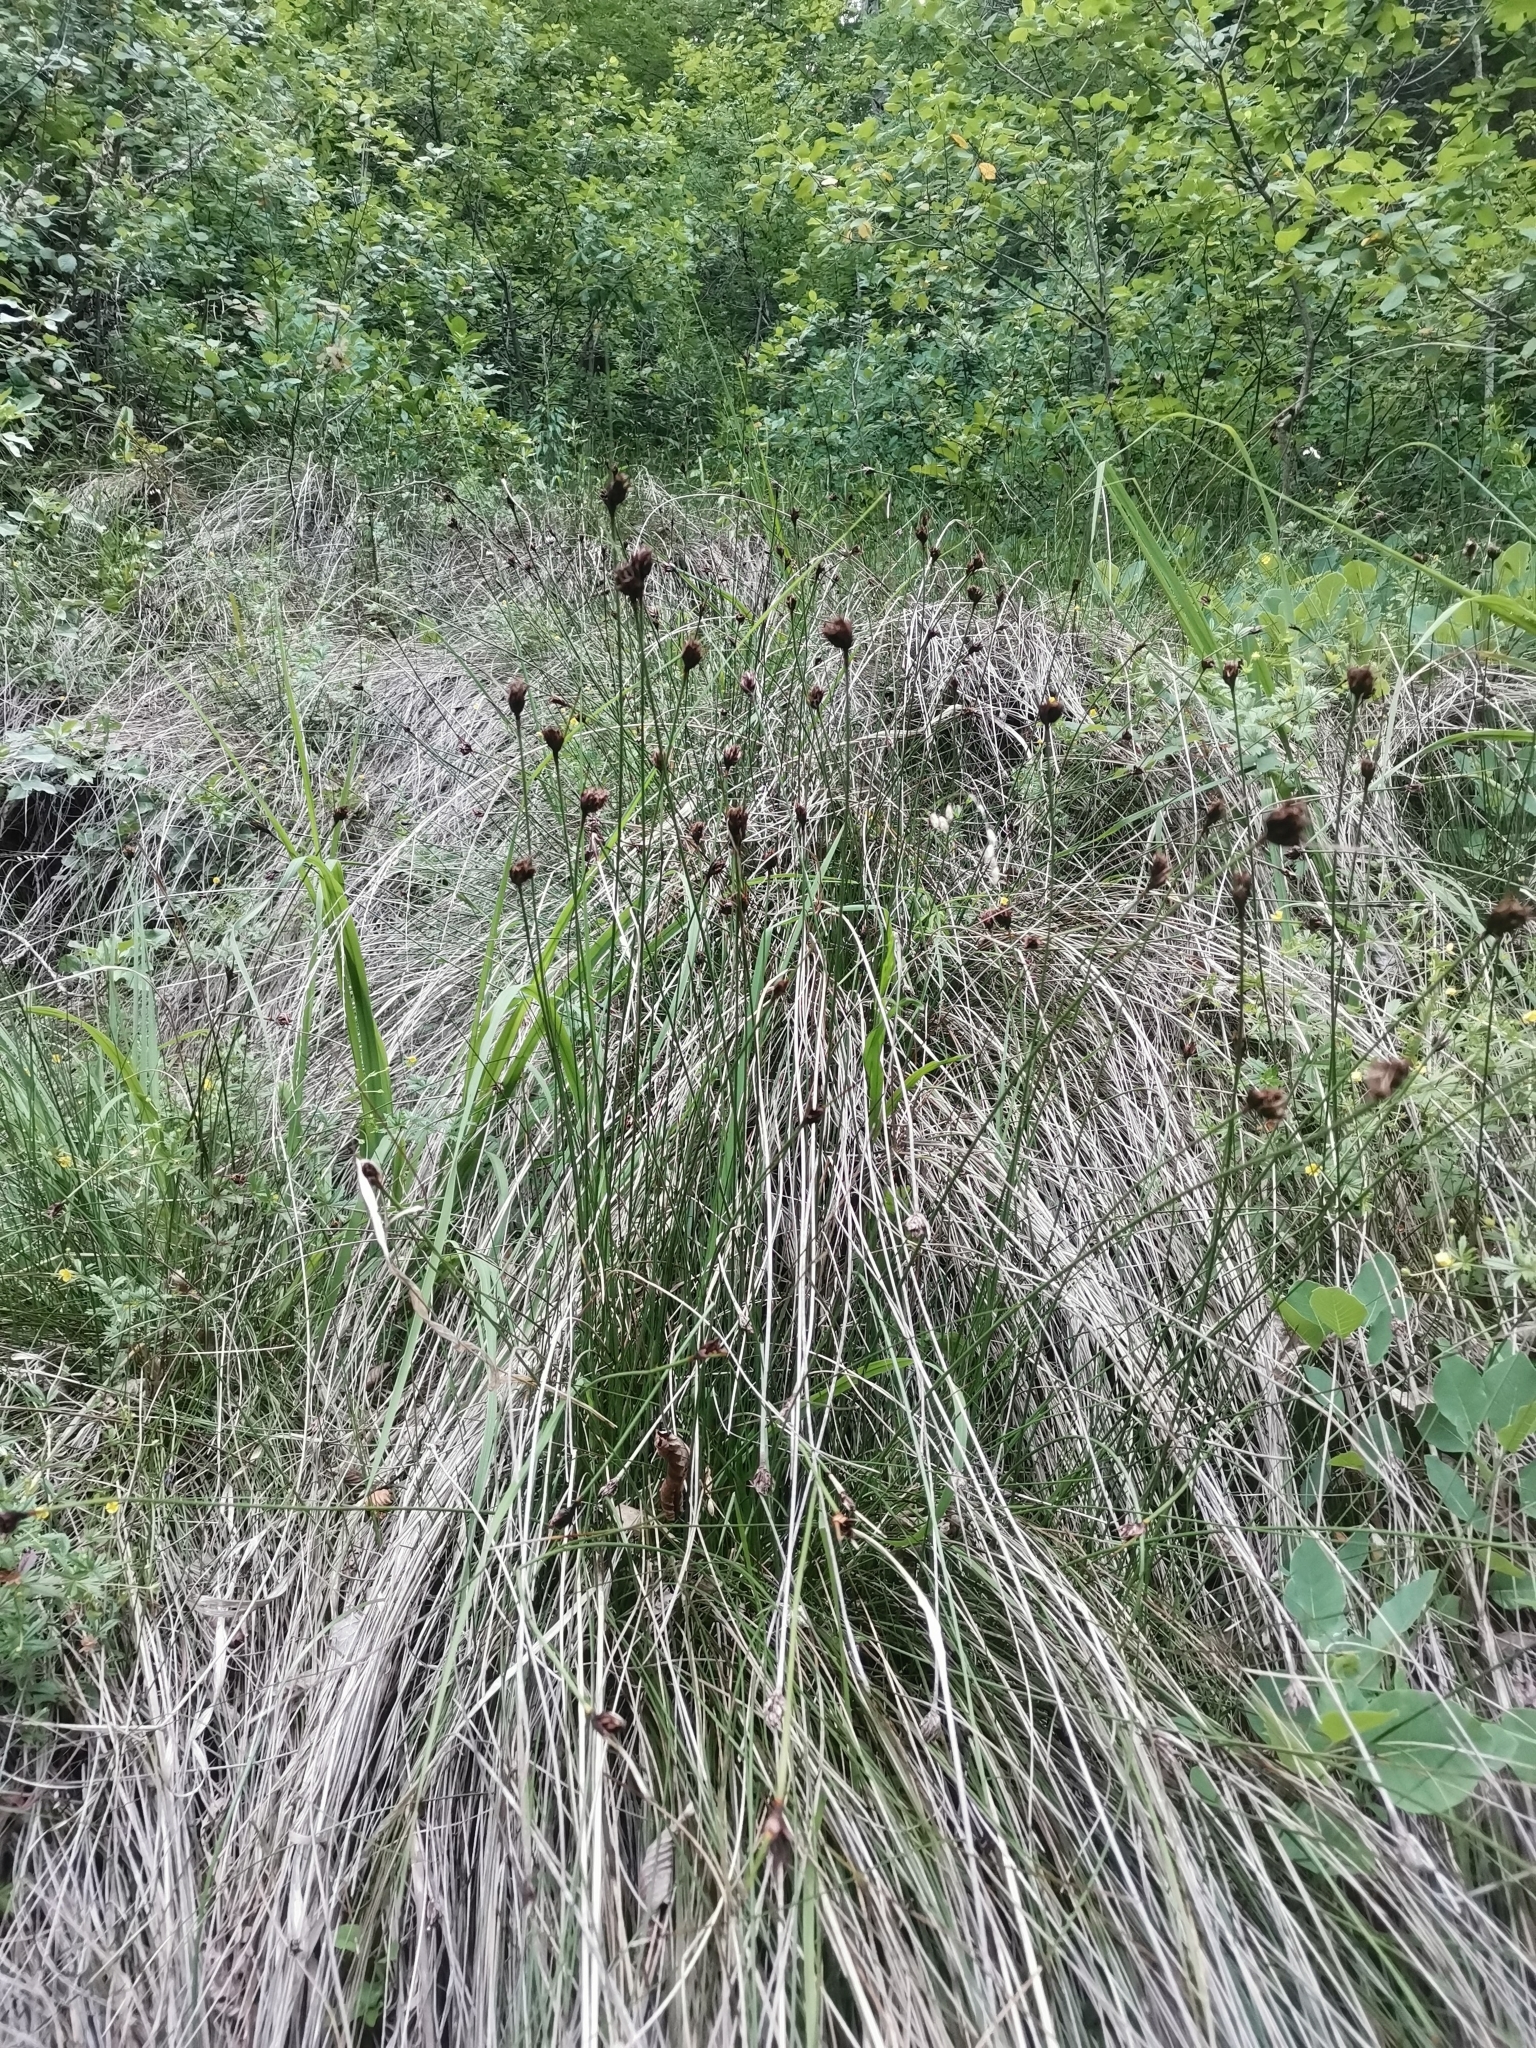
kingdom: Plantae
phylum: Tracheophyta
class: Liliopsida
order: Poales
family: Cyperaceae
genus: Schoenus
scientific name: Schoenus nigricans
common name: Black bog-rush
